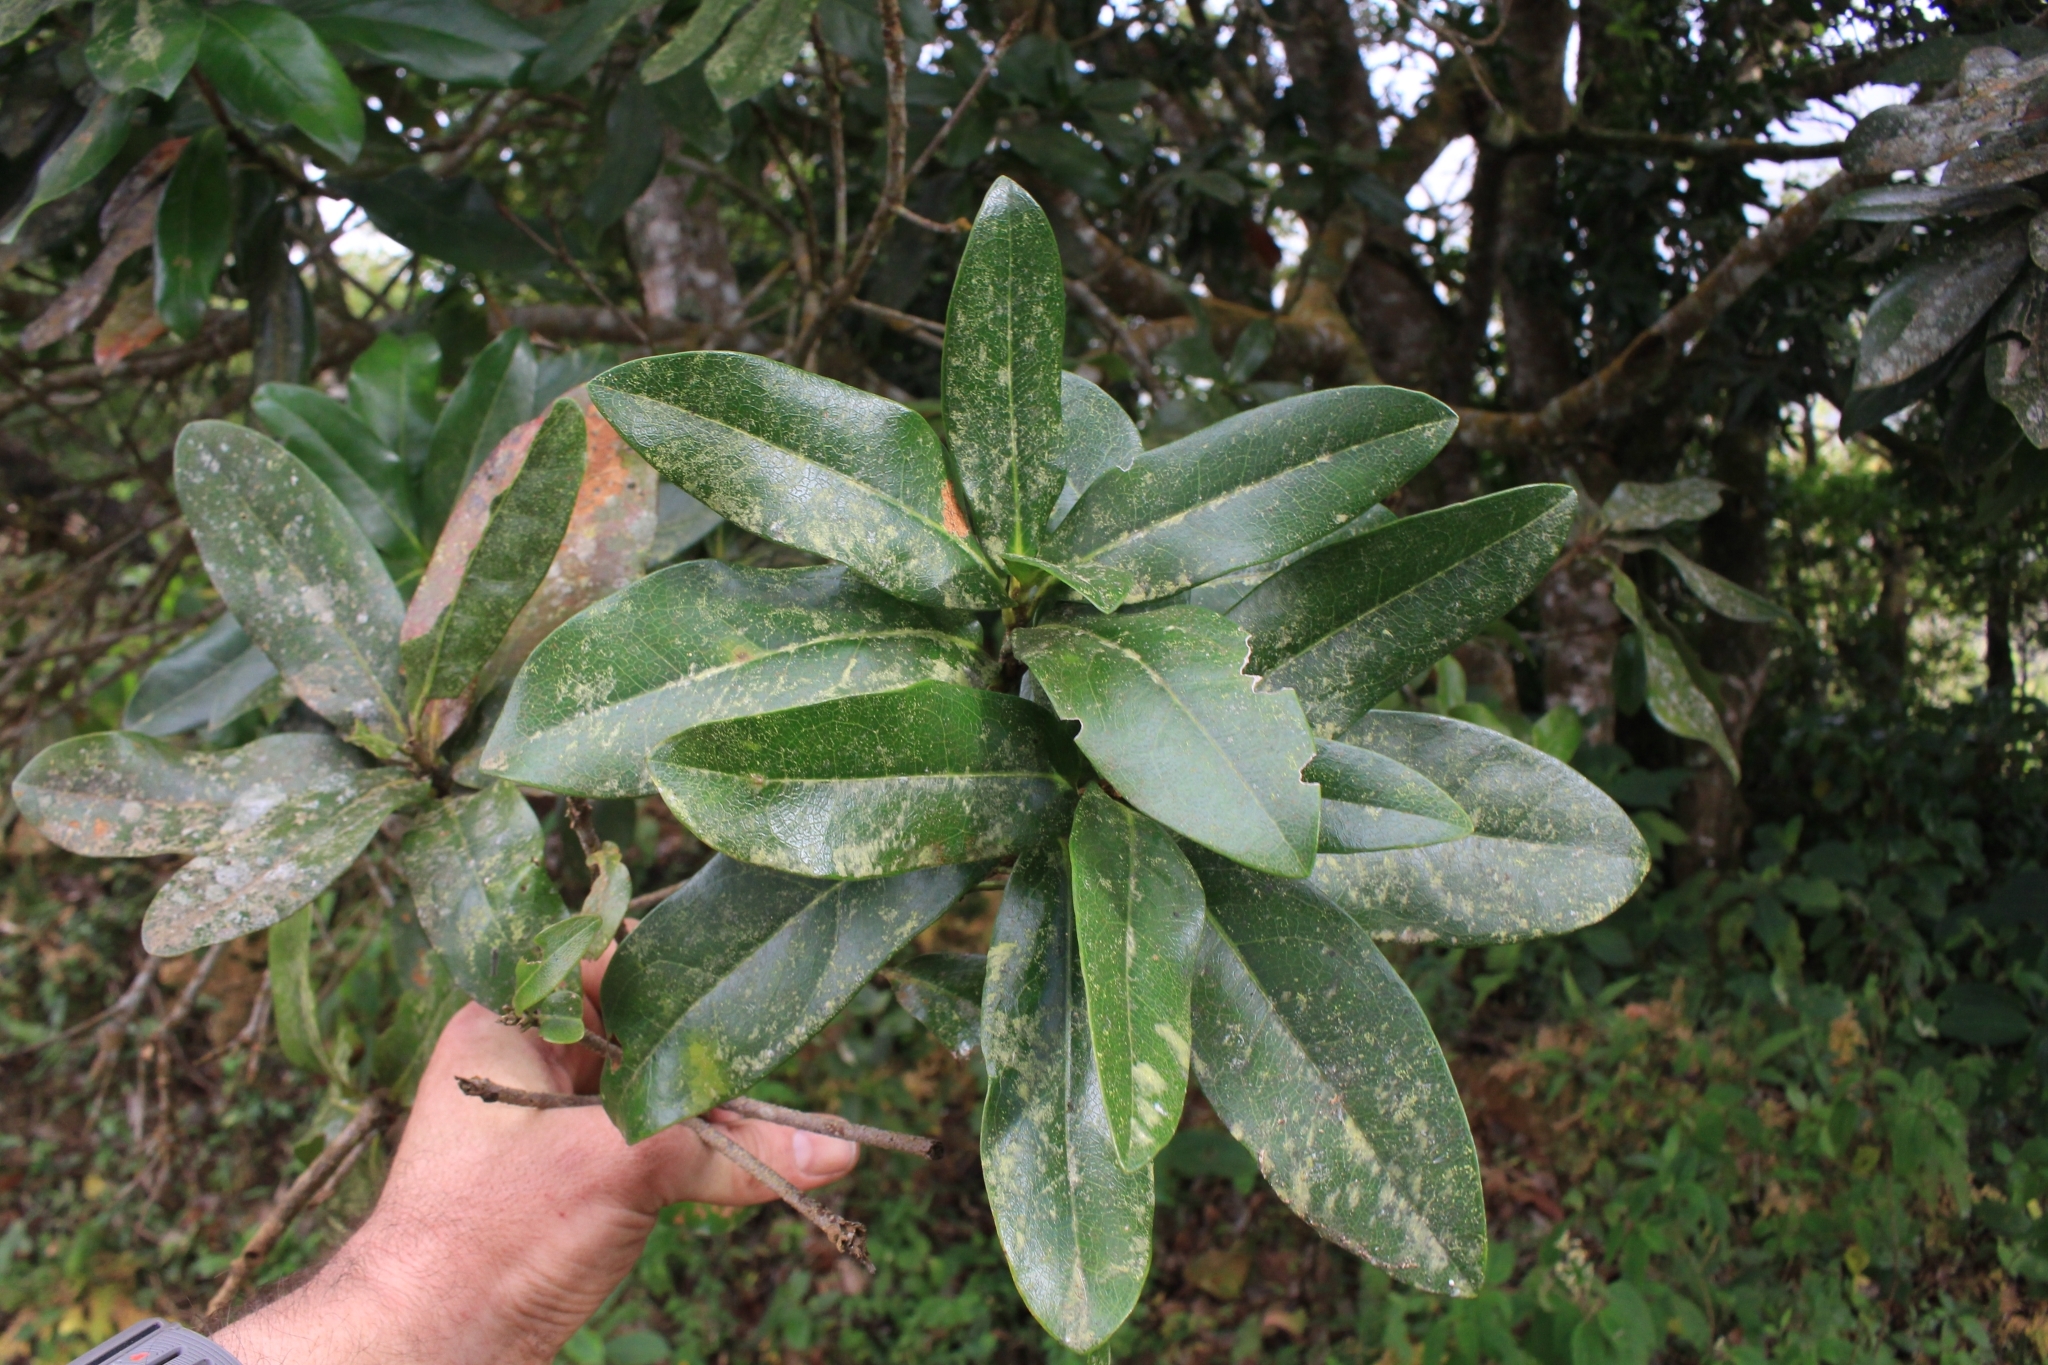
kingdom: Plantae
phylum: Tracheophyta
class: Magnoliopsida
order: Proteales
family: Proteaceae
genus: Panopsis
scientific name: Panopsis costaricensis
